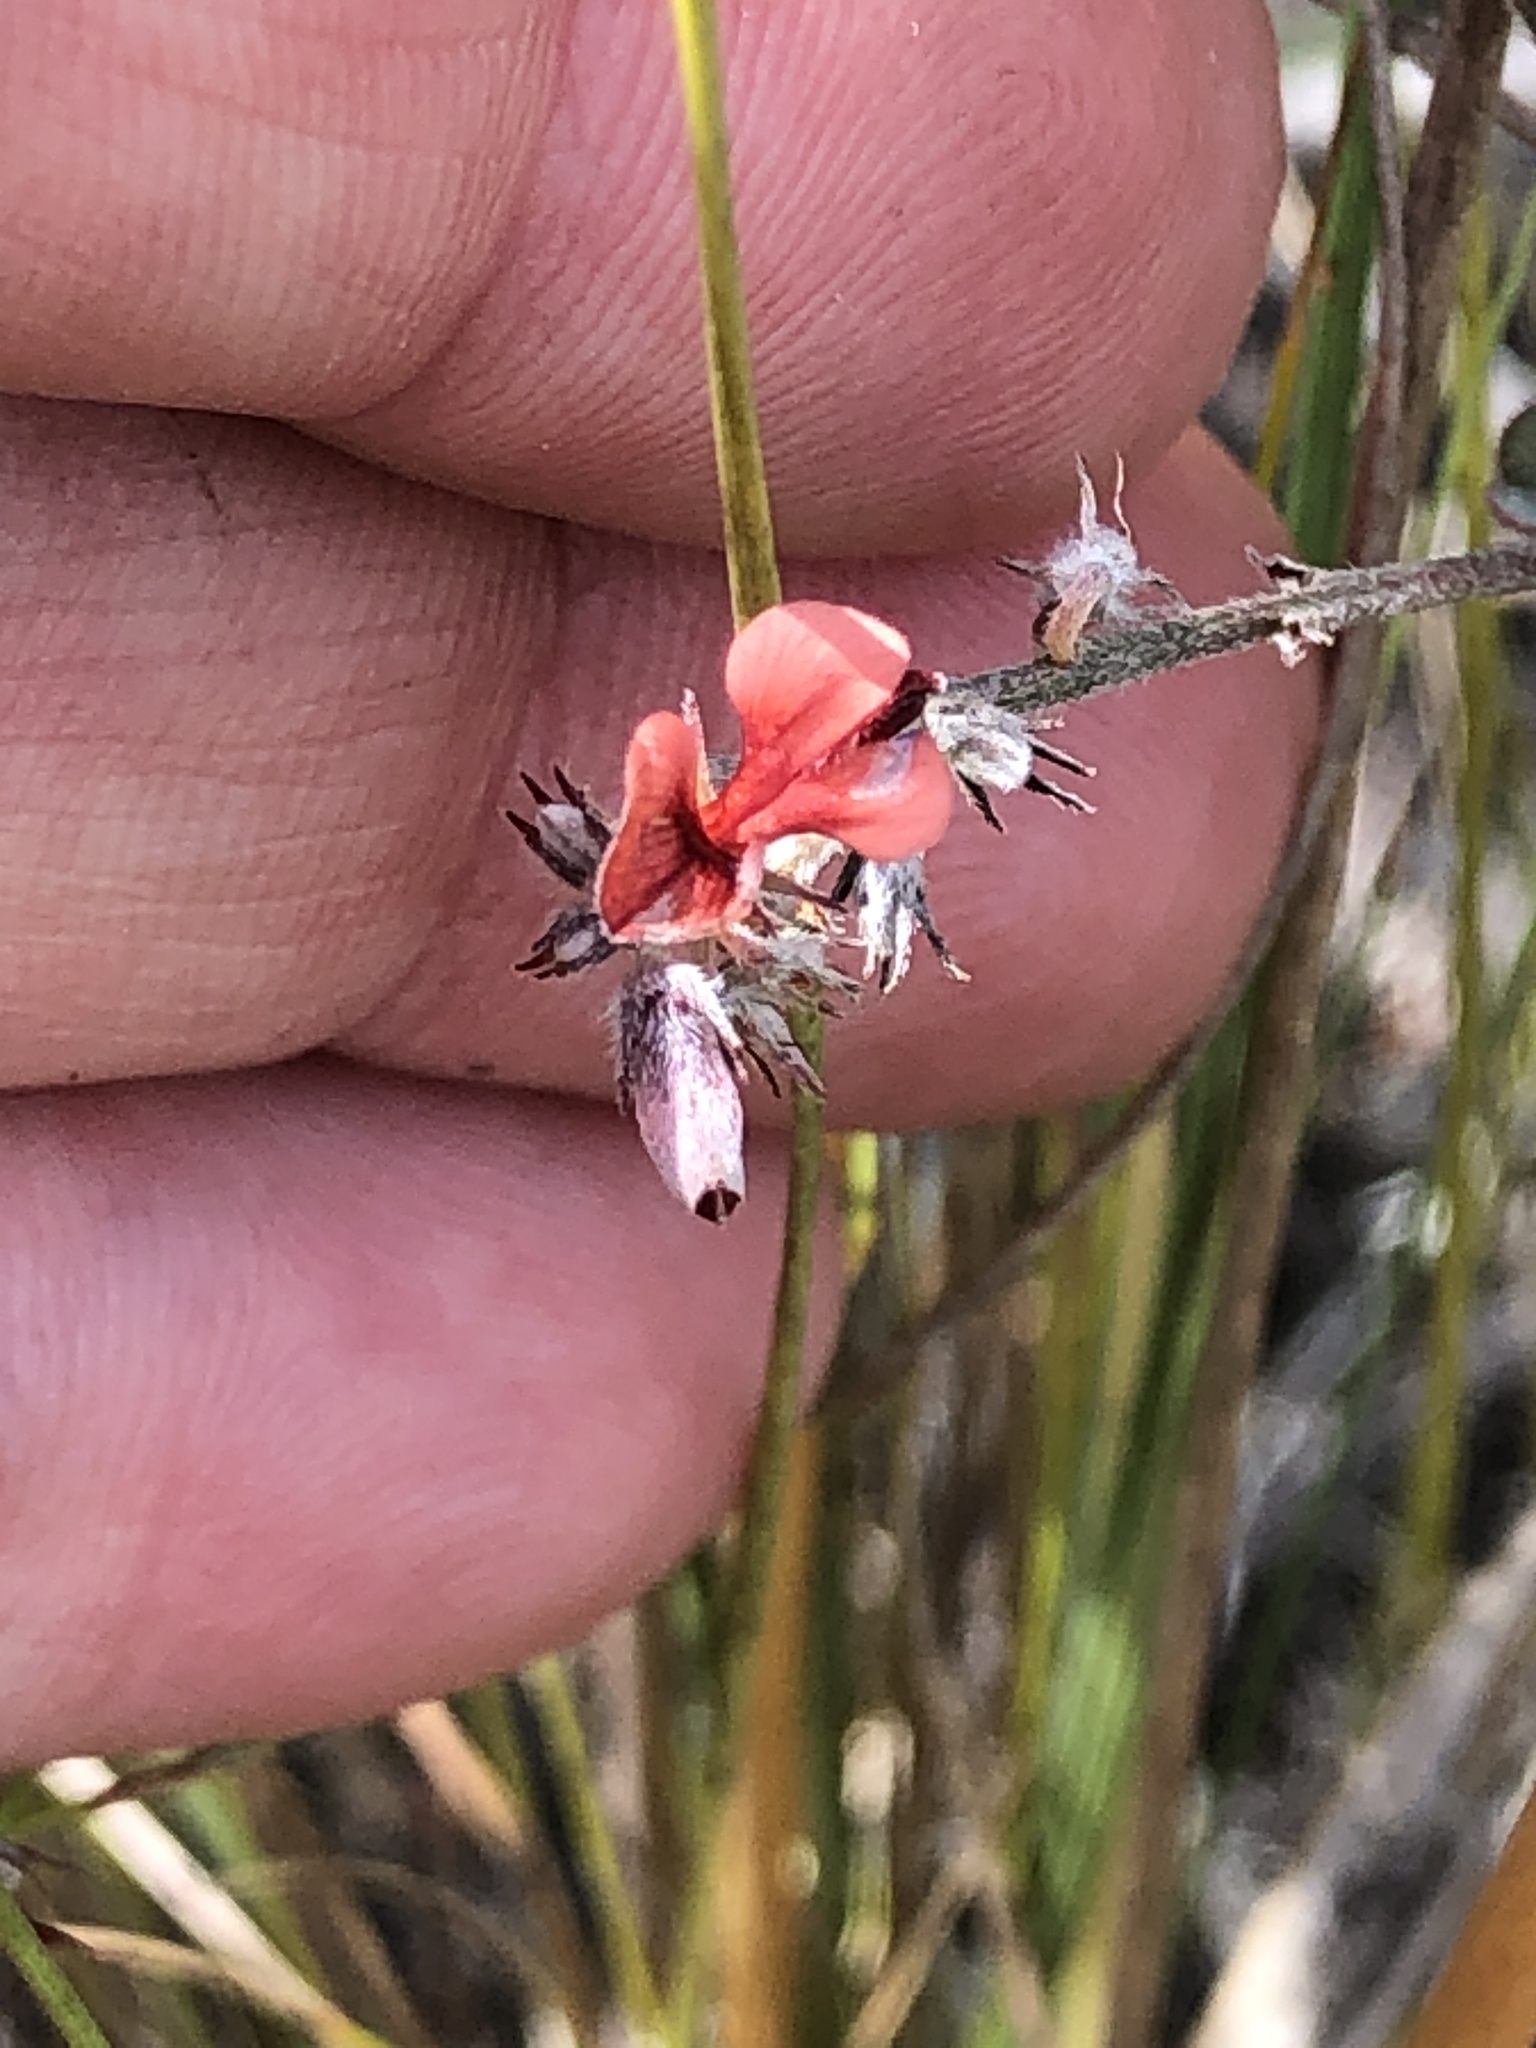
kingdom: Plantae
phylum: Tracheophyta
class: Magnoliopsida
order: Fabales
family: Fabaceae
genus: Indigofera
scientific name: Indigofera priorii
